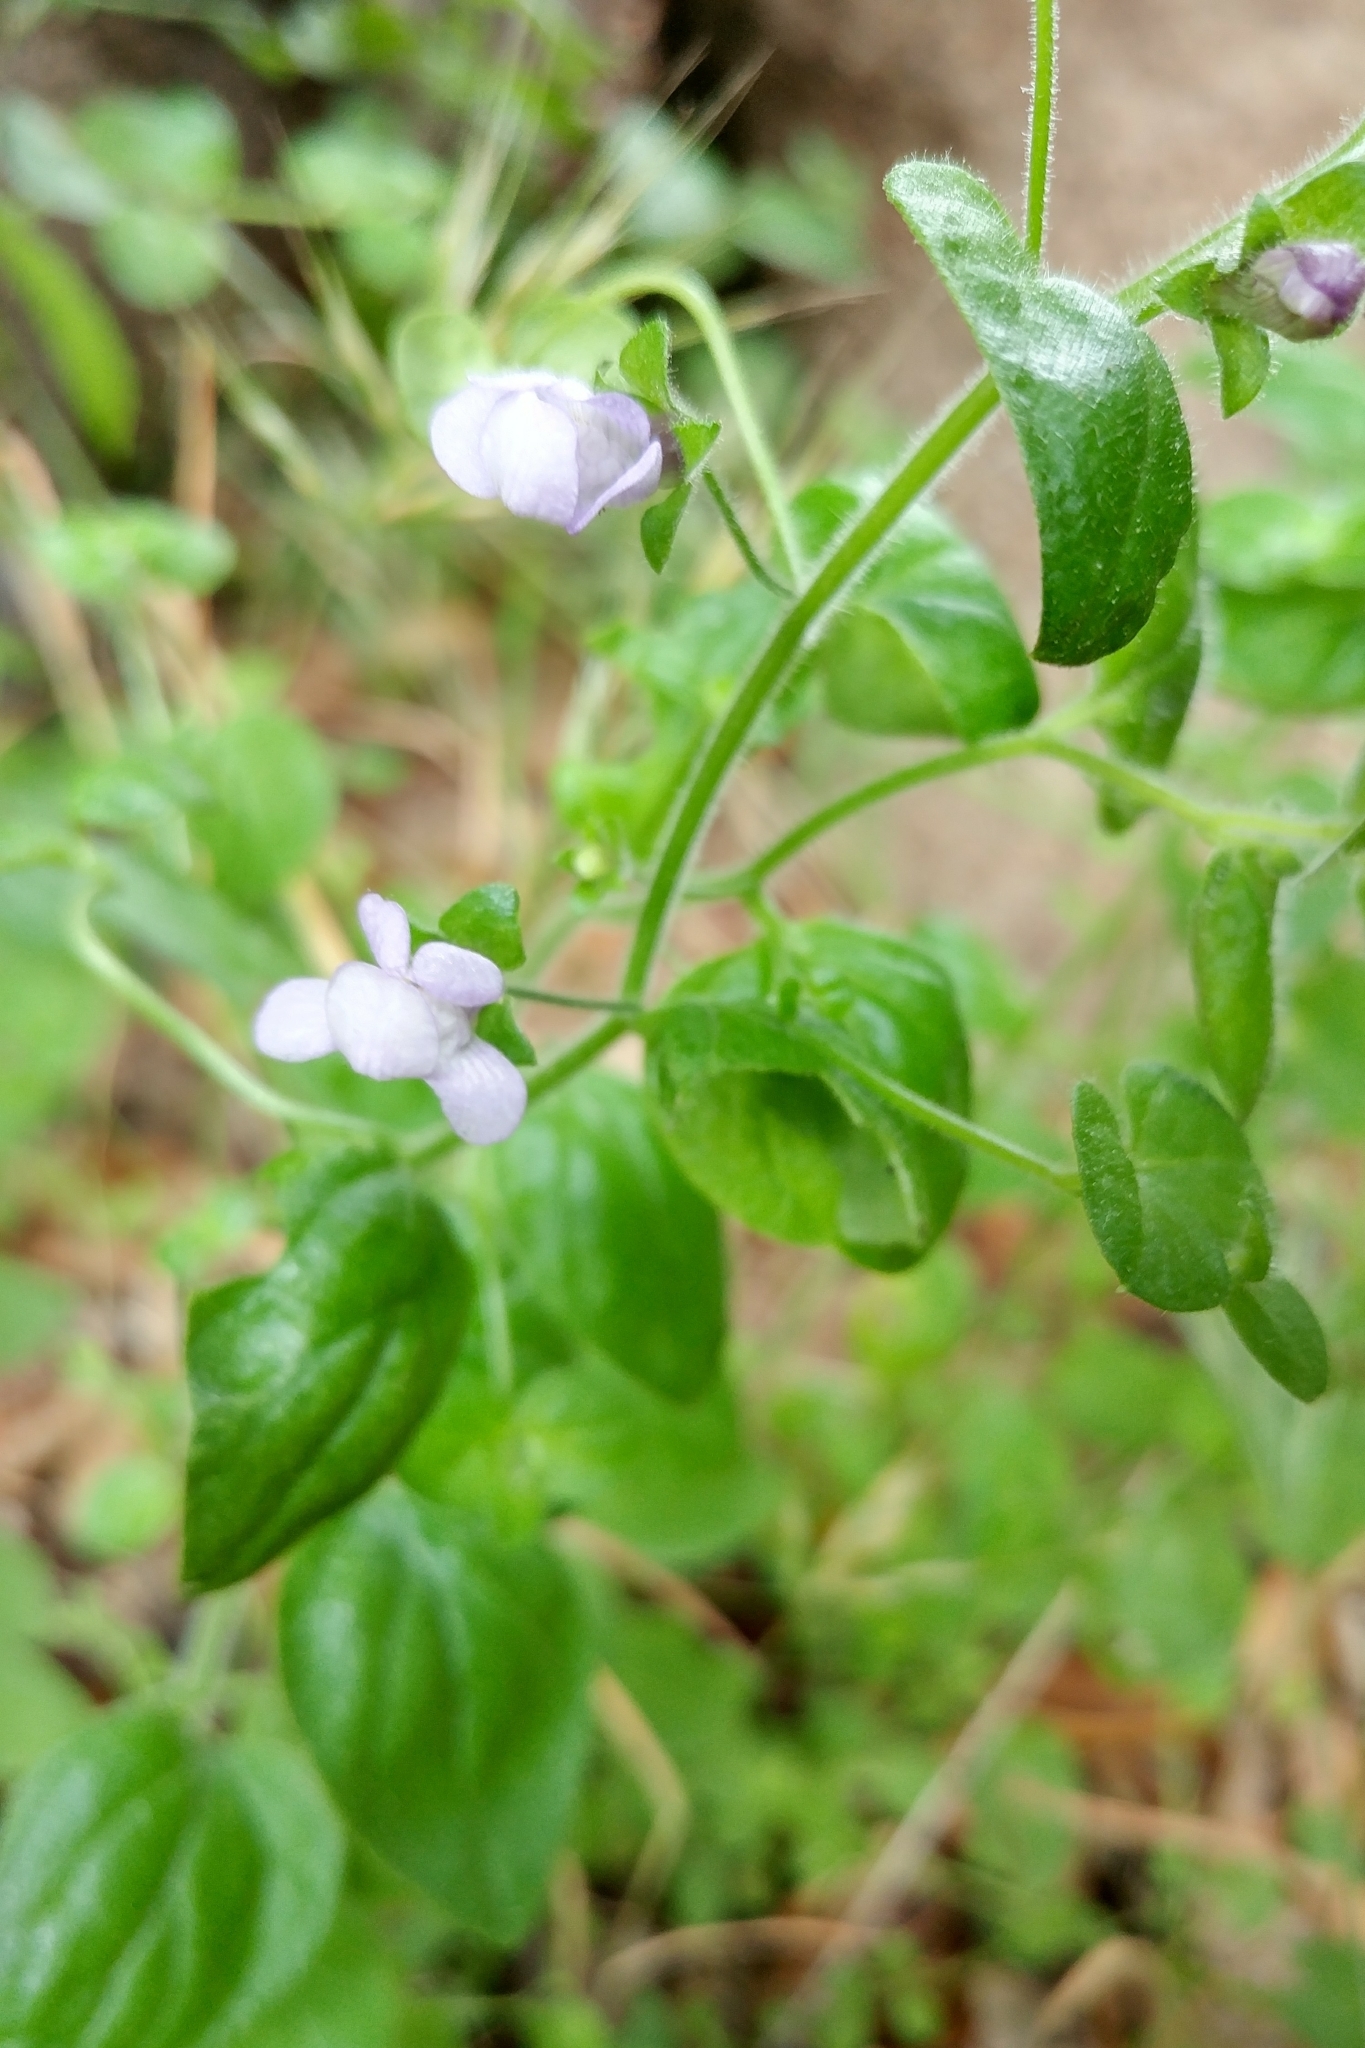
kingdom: Plantae
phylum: Tracheophyta
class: Magnoliopsida
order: Lamiales
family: Plantaginaceae
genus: Sairocarpus
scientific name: Sairocarpus nuttallianus
